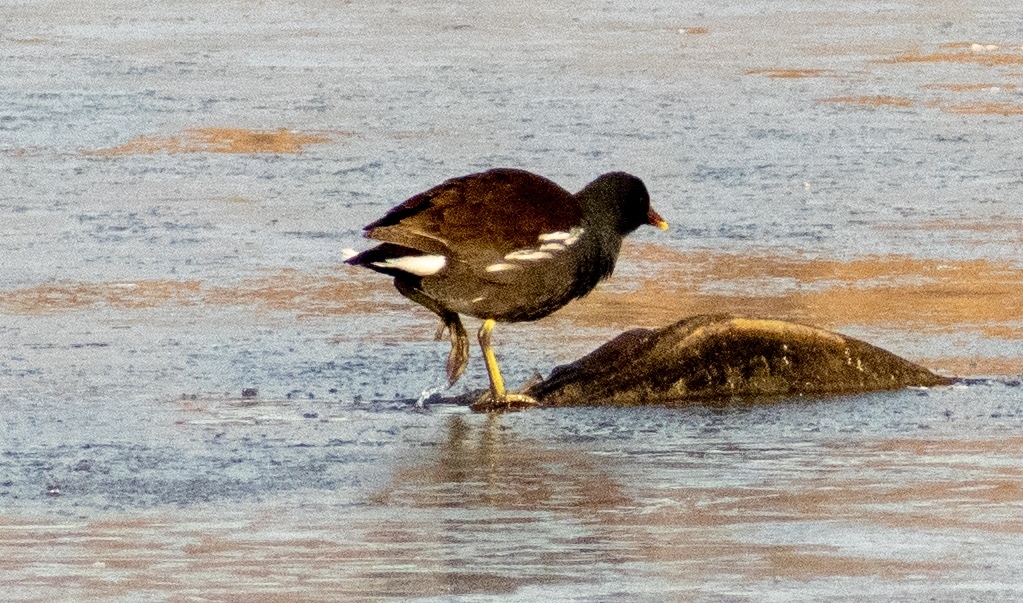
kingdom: Animalia
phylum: Chordata
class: Aves
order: Gruiformes
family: Rallidae
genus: Gallinula
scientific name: Gallinula chloropus
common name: Common moorhen
